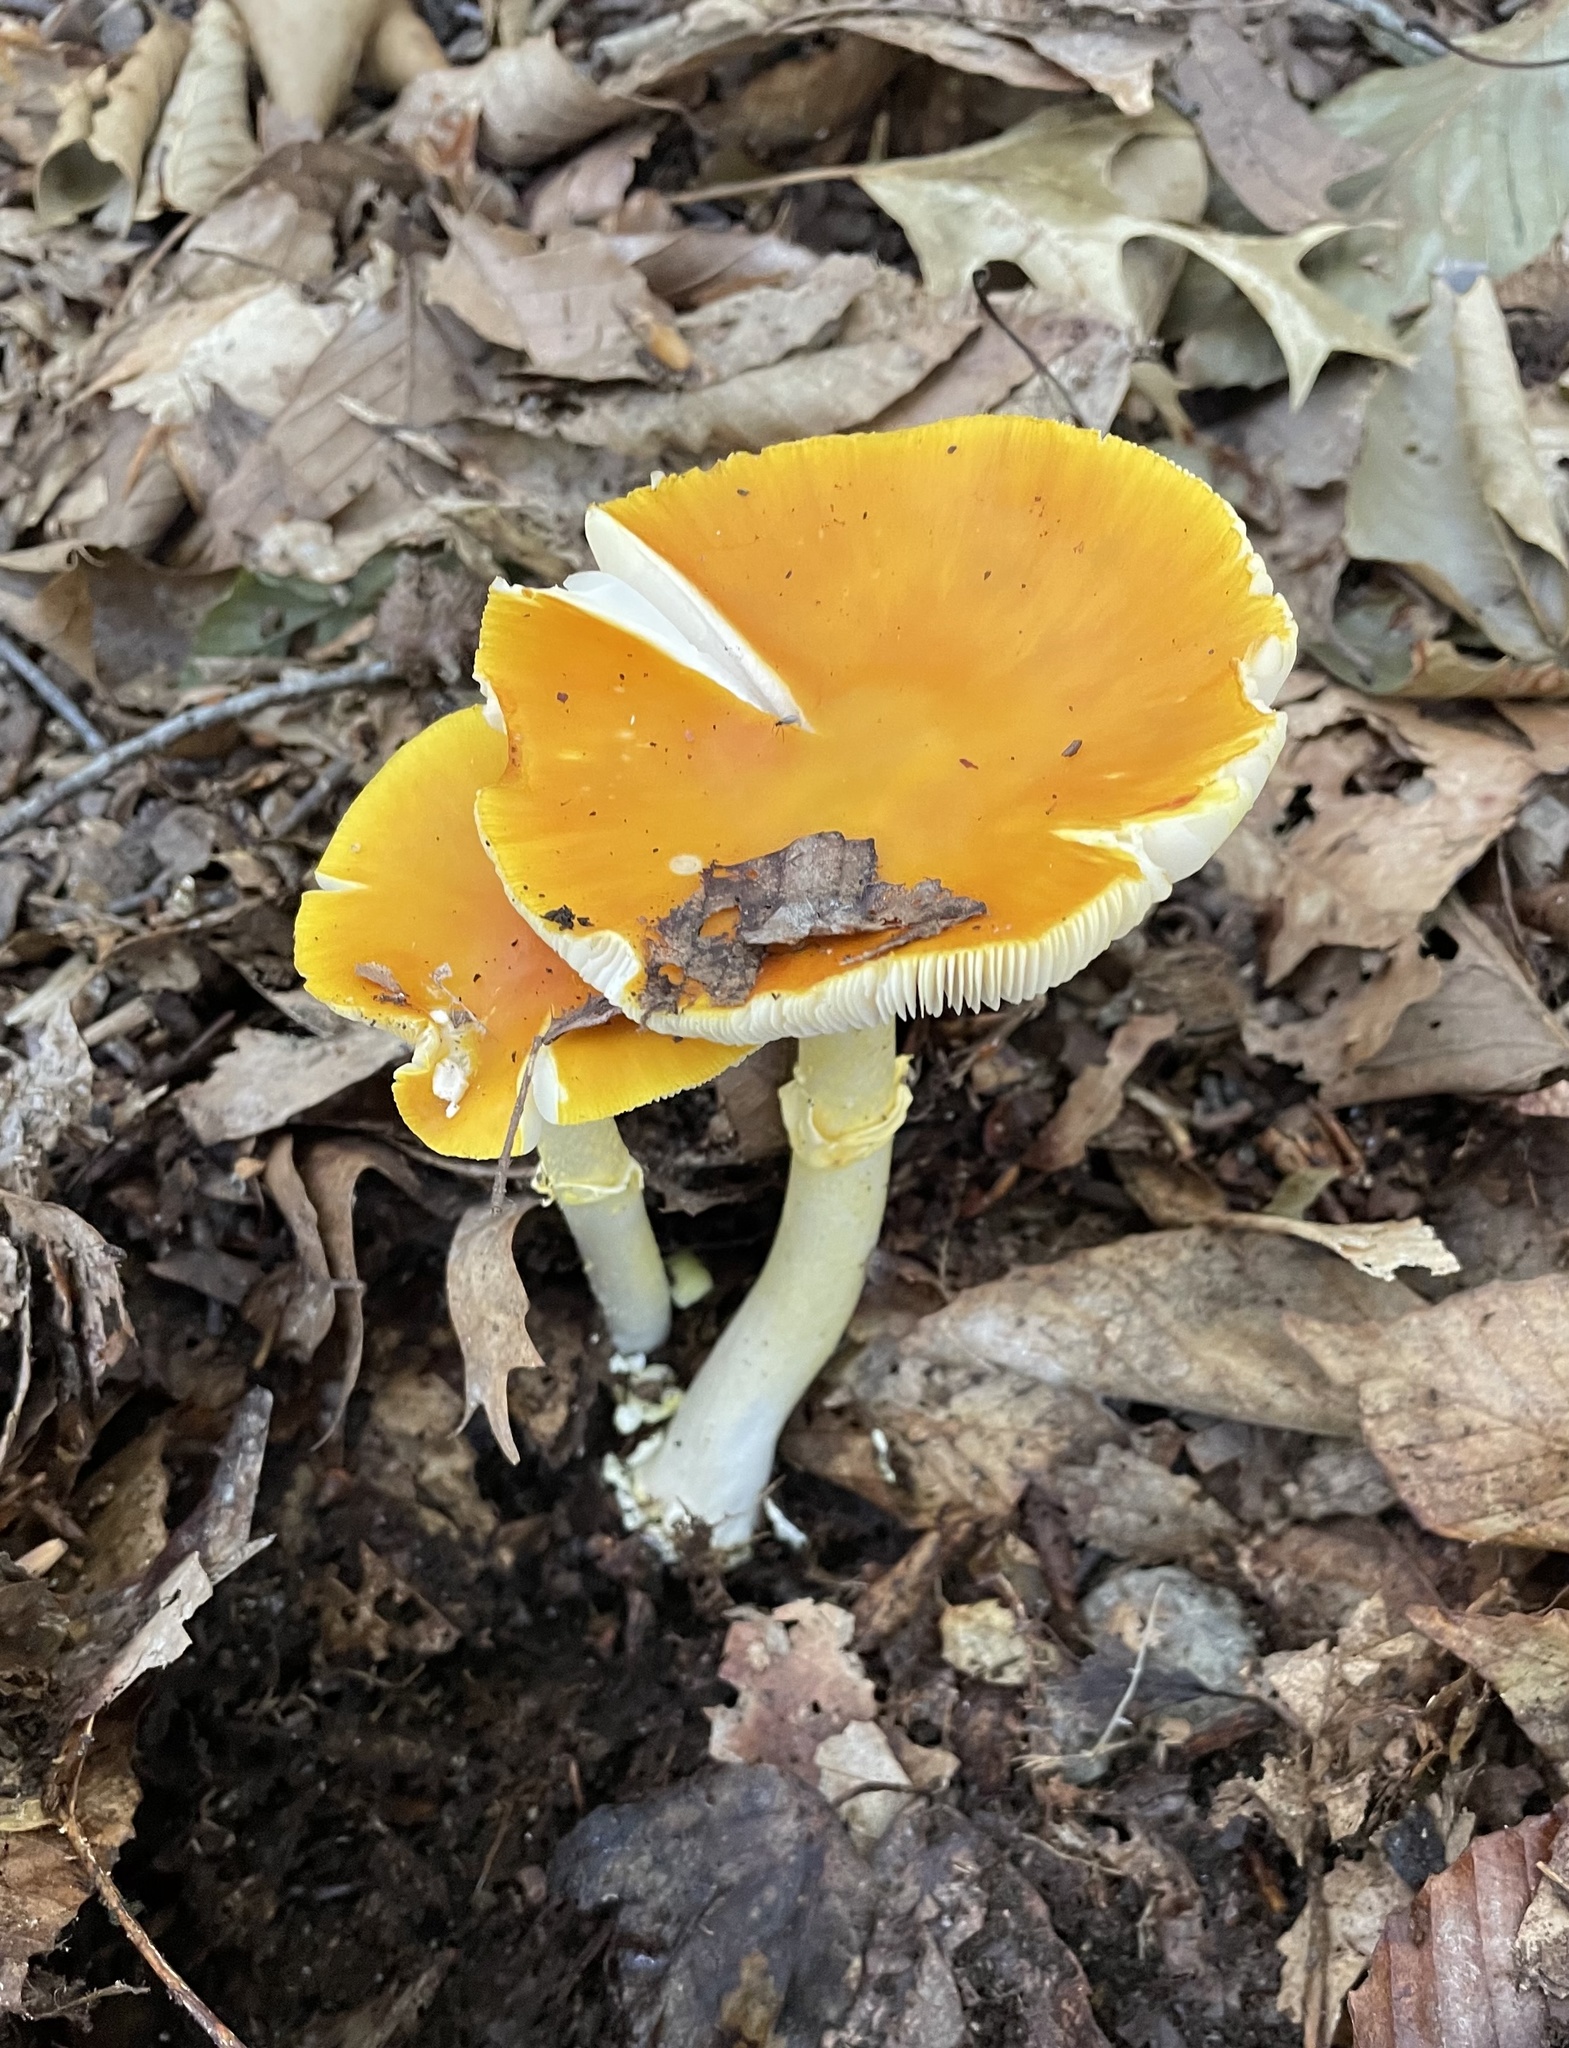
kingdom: Fungi
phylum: Basidiomycota
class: Agaricomycetes
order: Agaricales
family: Amanitaceae
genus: Amanita
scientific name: Amanita elongata
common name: Peck's yellow dust amanita
